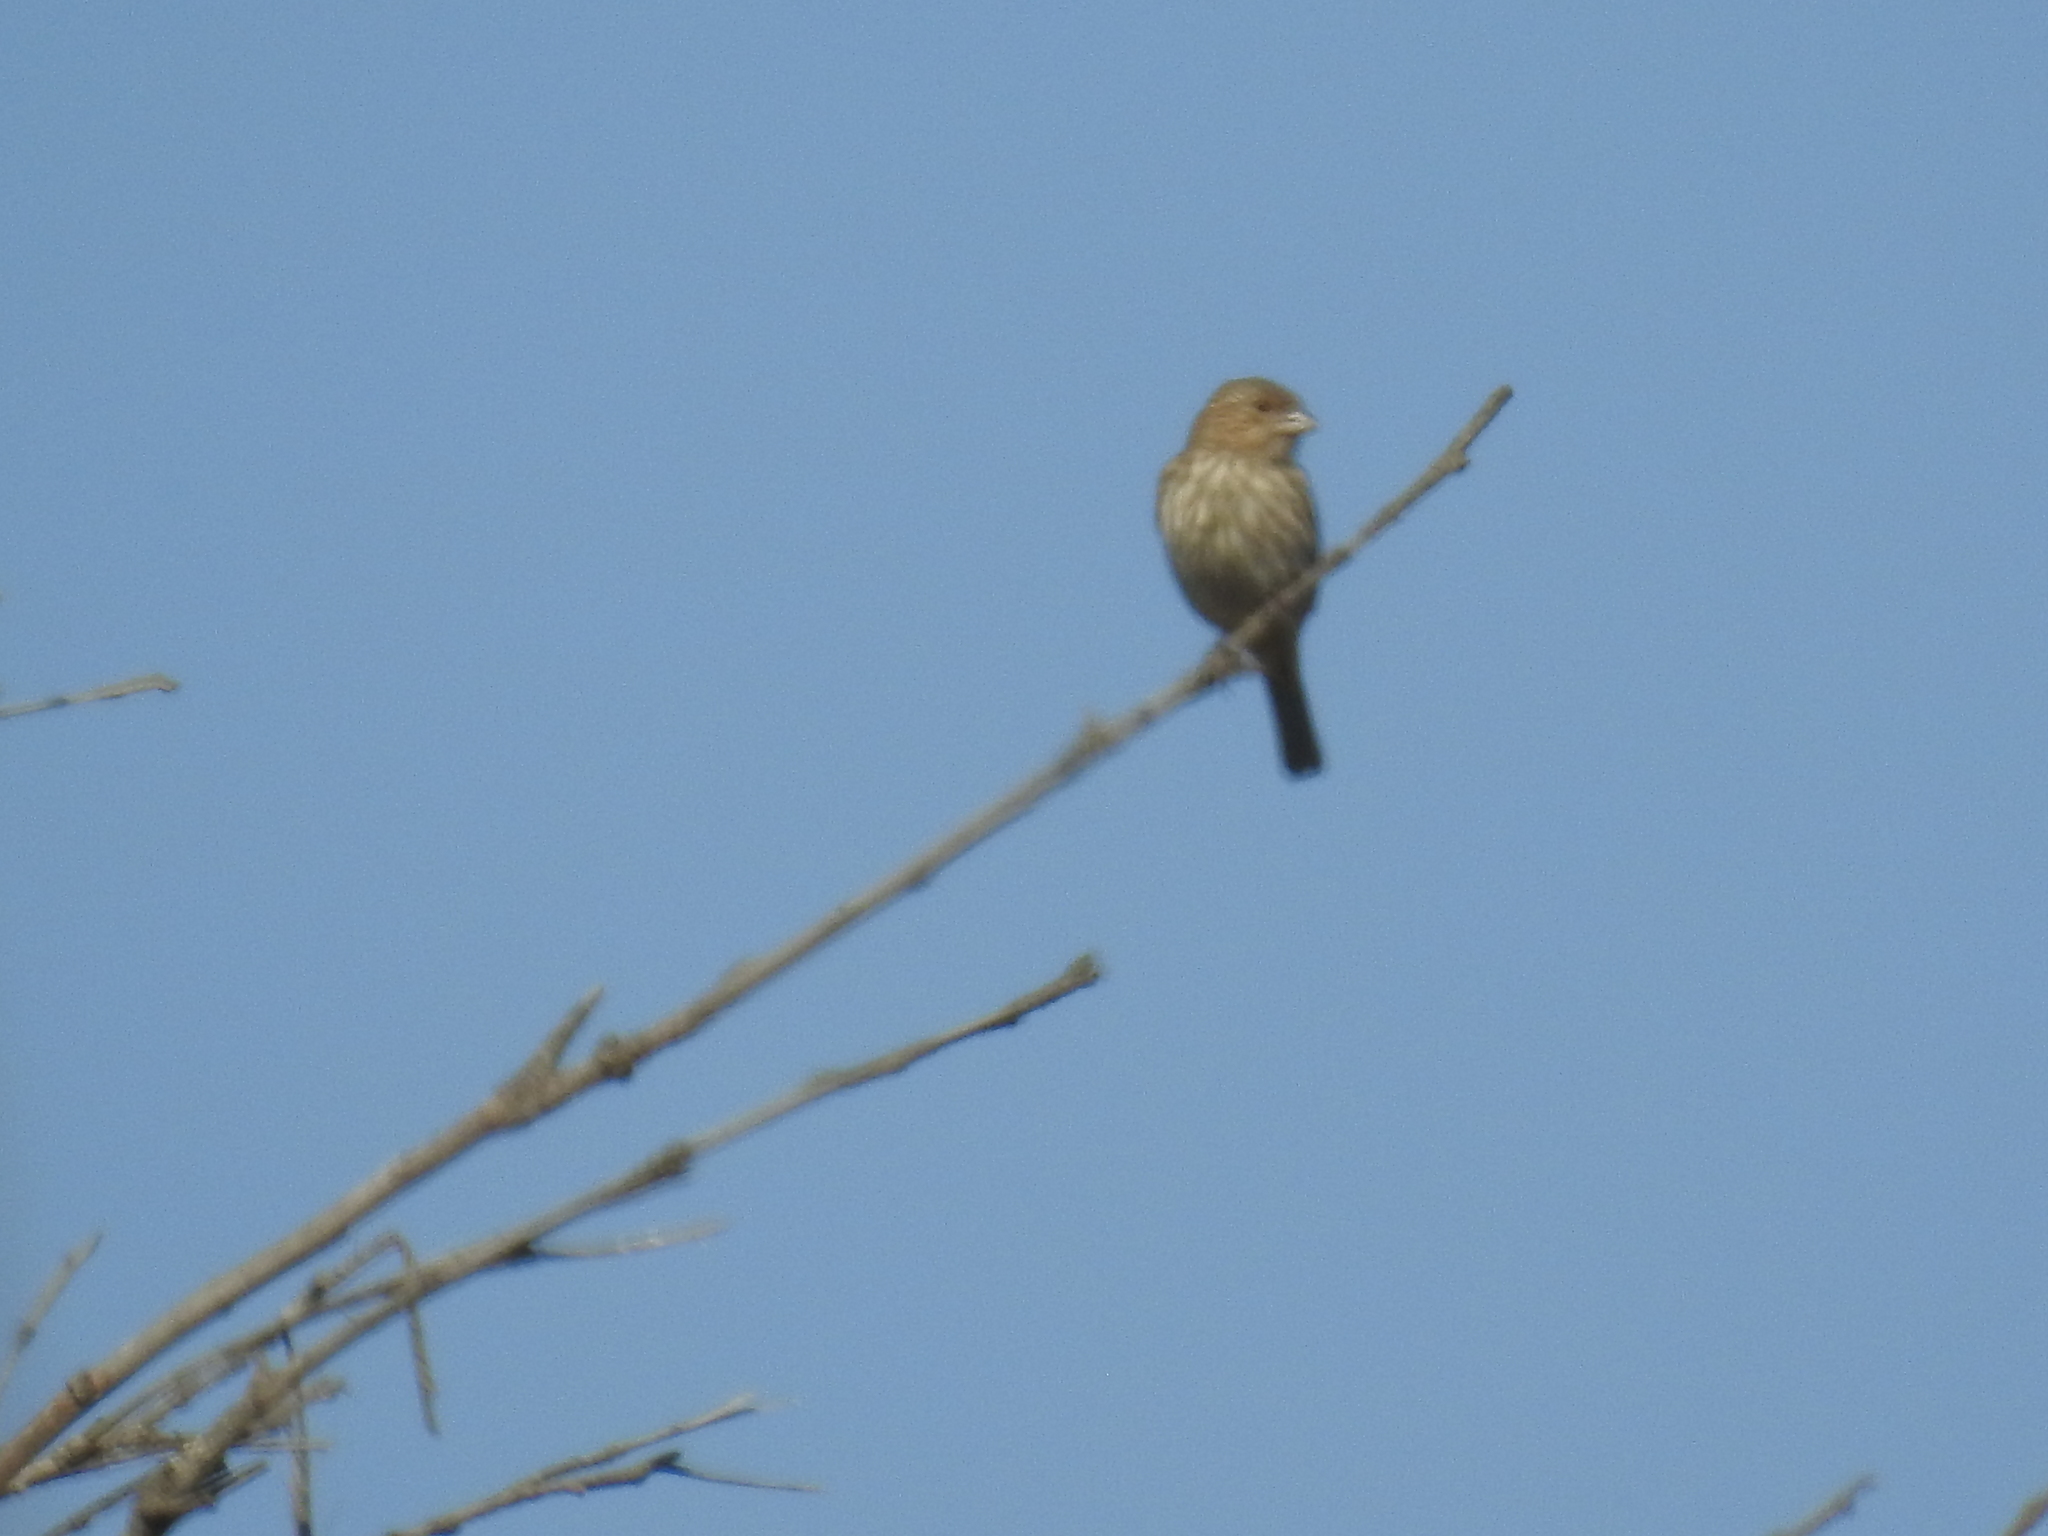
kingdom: Animalia
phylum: Chordata
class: Aves
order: Passeriformes
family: Fringillidae
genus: Haemorhous
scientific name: Haemorhous mexicanus
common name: House finch
